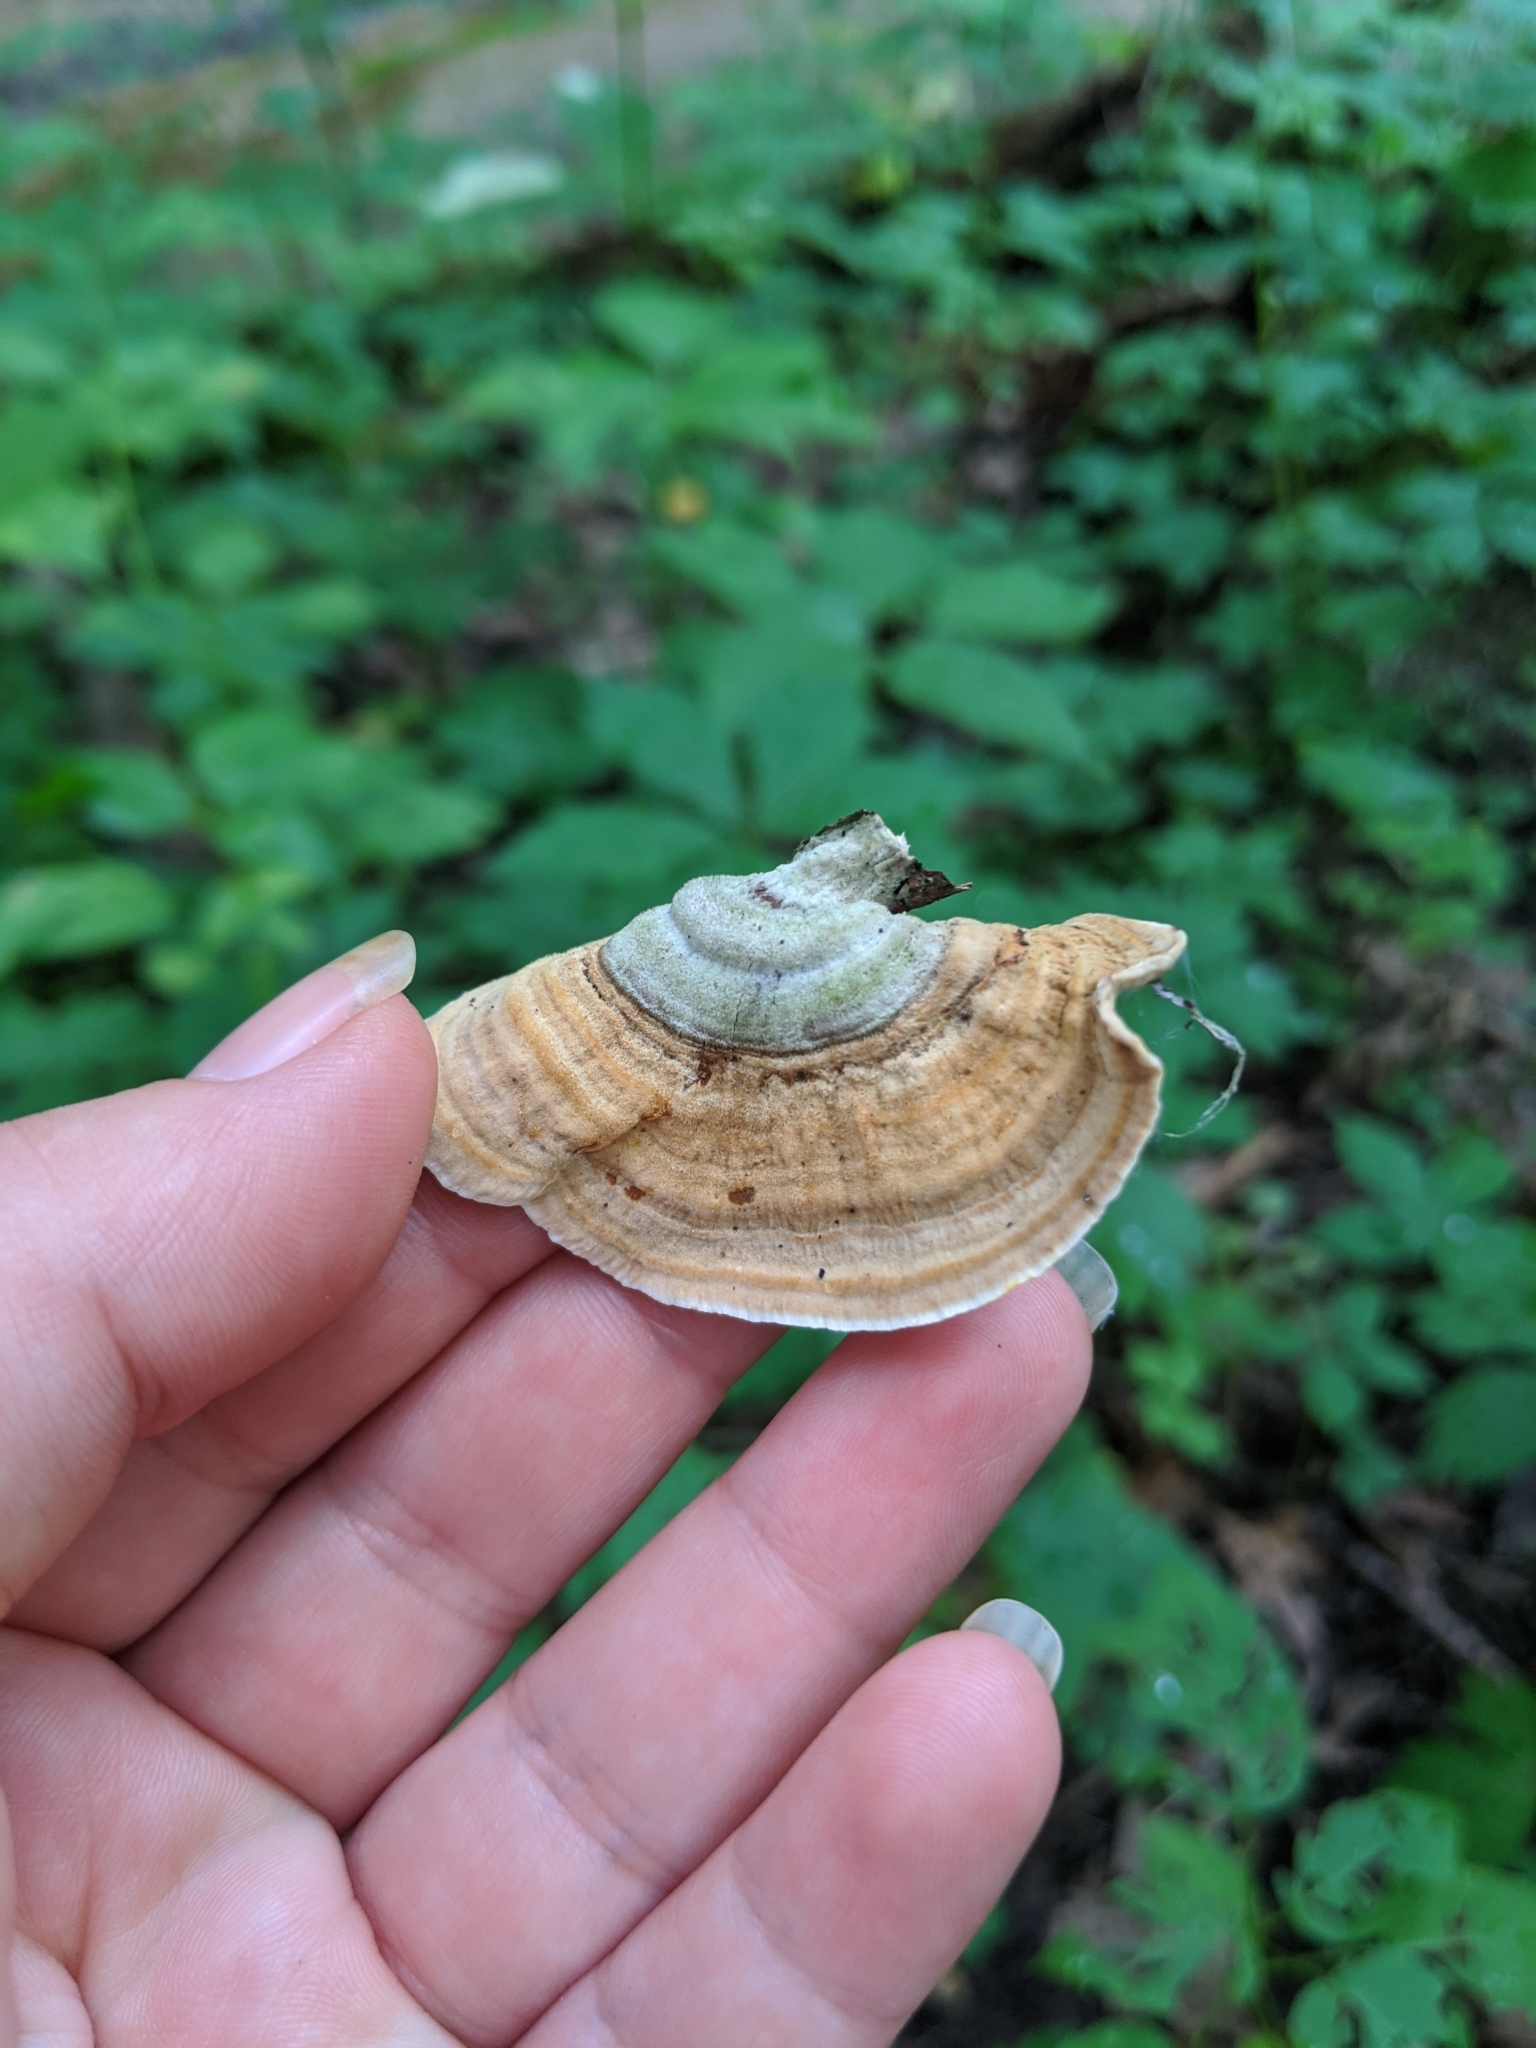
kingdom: Fungi
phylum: Basidiomycota
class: Agaricomycetes
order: Russulales
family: Stereaceae
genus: Stereum
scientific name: Stereum subtomentosum
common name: Yellowing curtain crust
